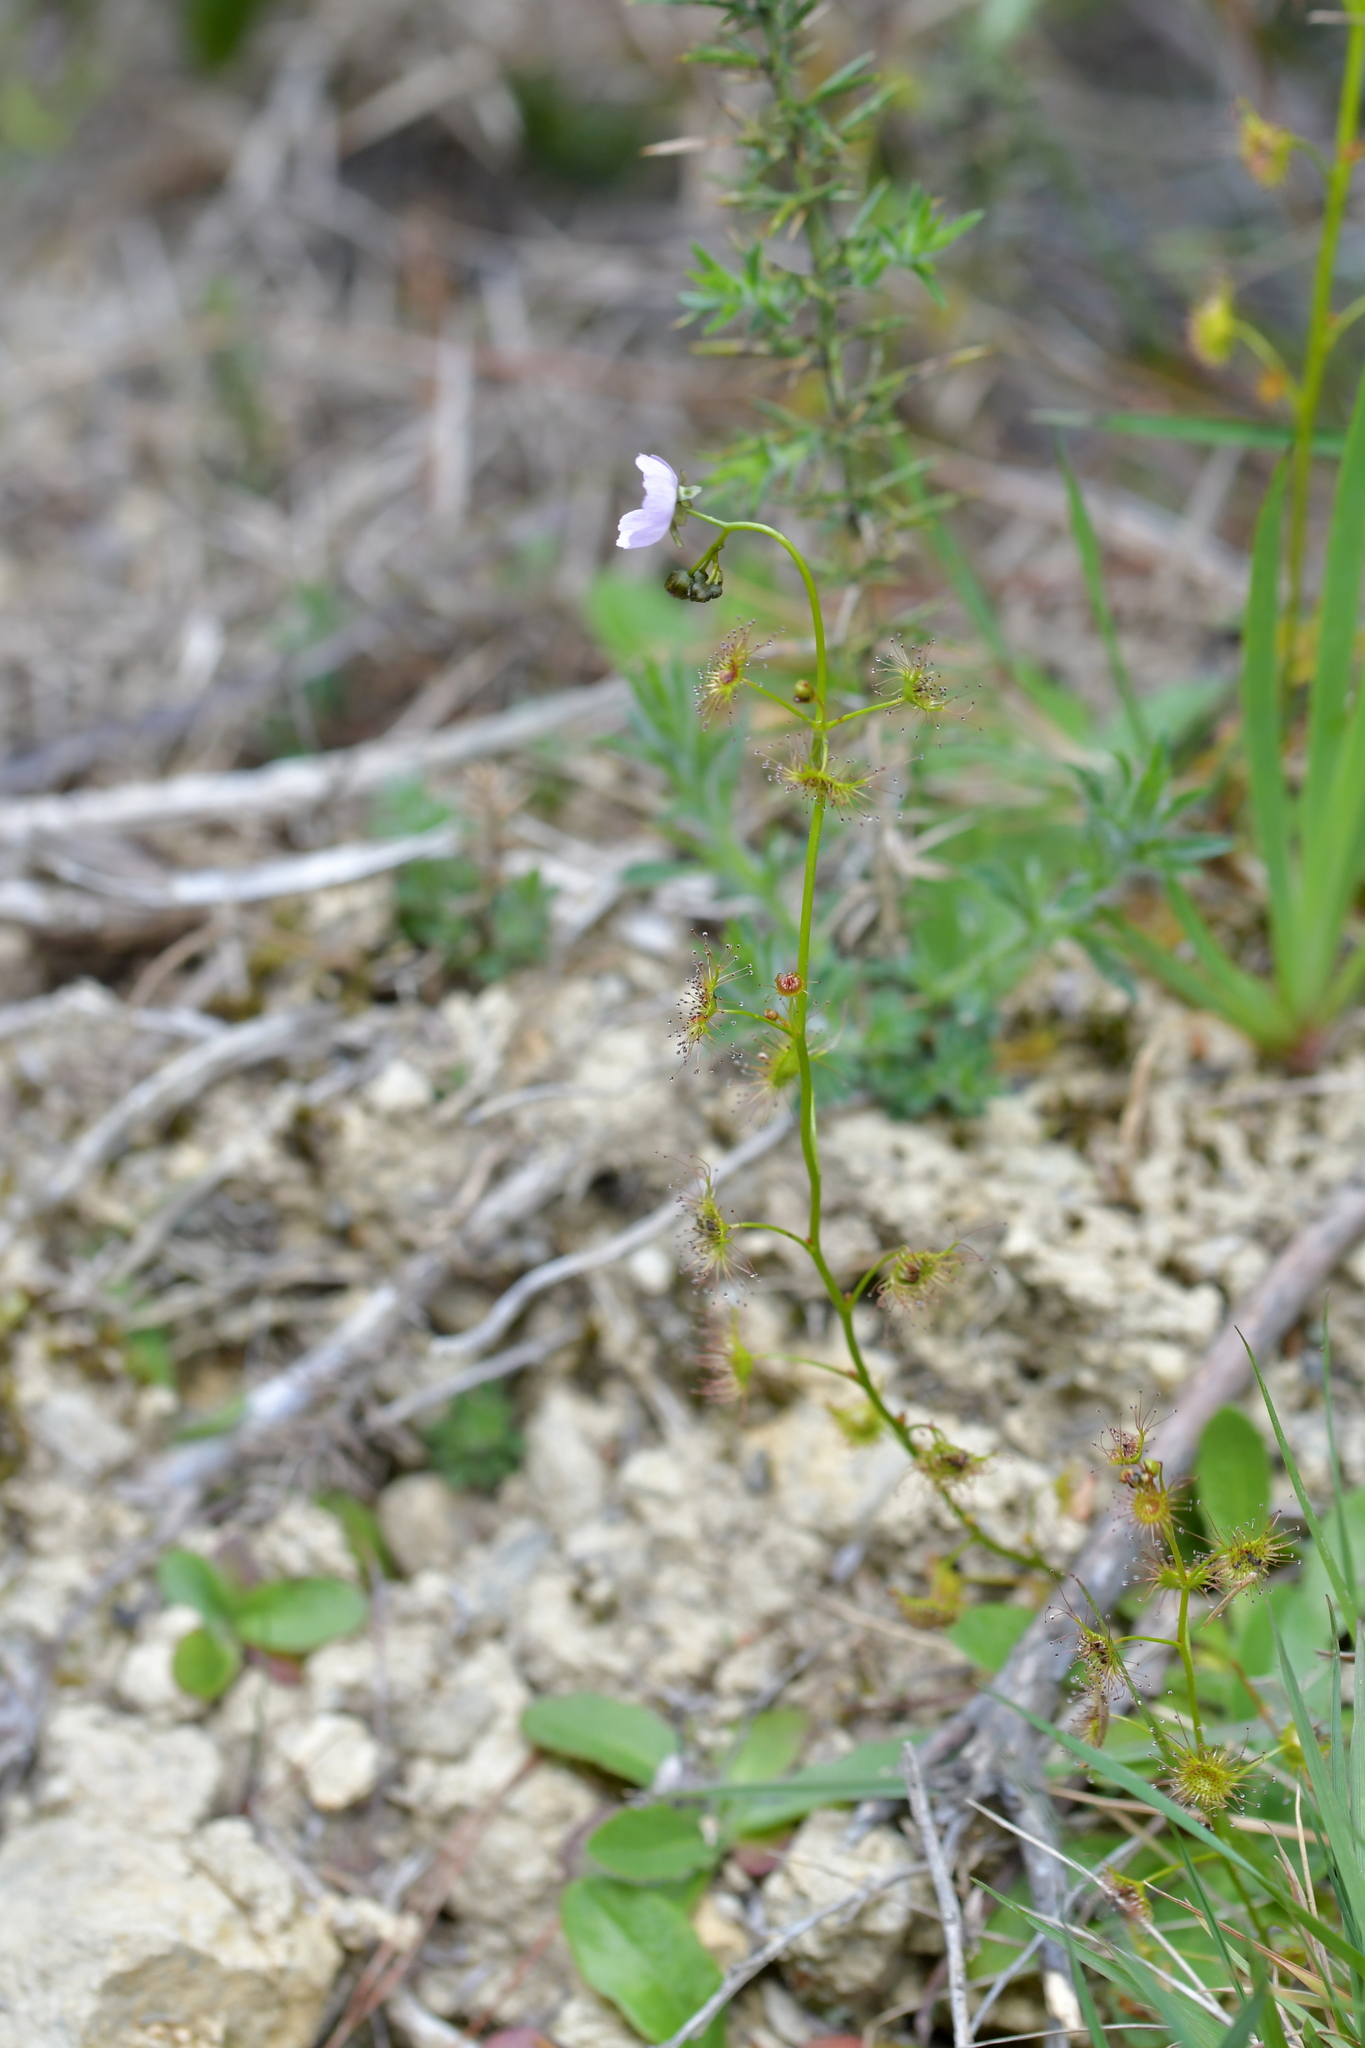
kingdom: Plantae
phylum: Tracheophyta
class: Magnoliopsida
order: Caryophyllales
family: Droseraceae
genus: Drosera
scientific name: Drosera peltata
